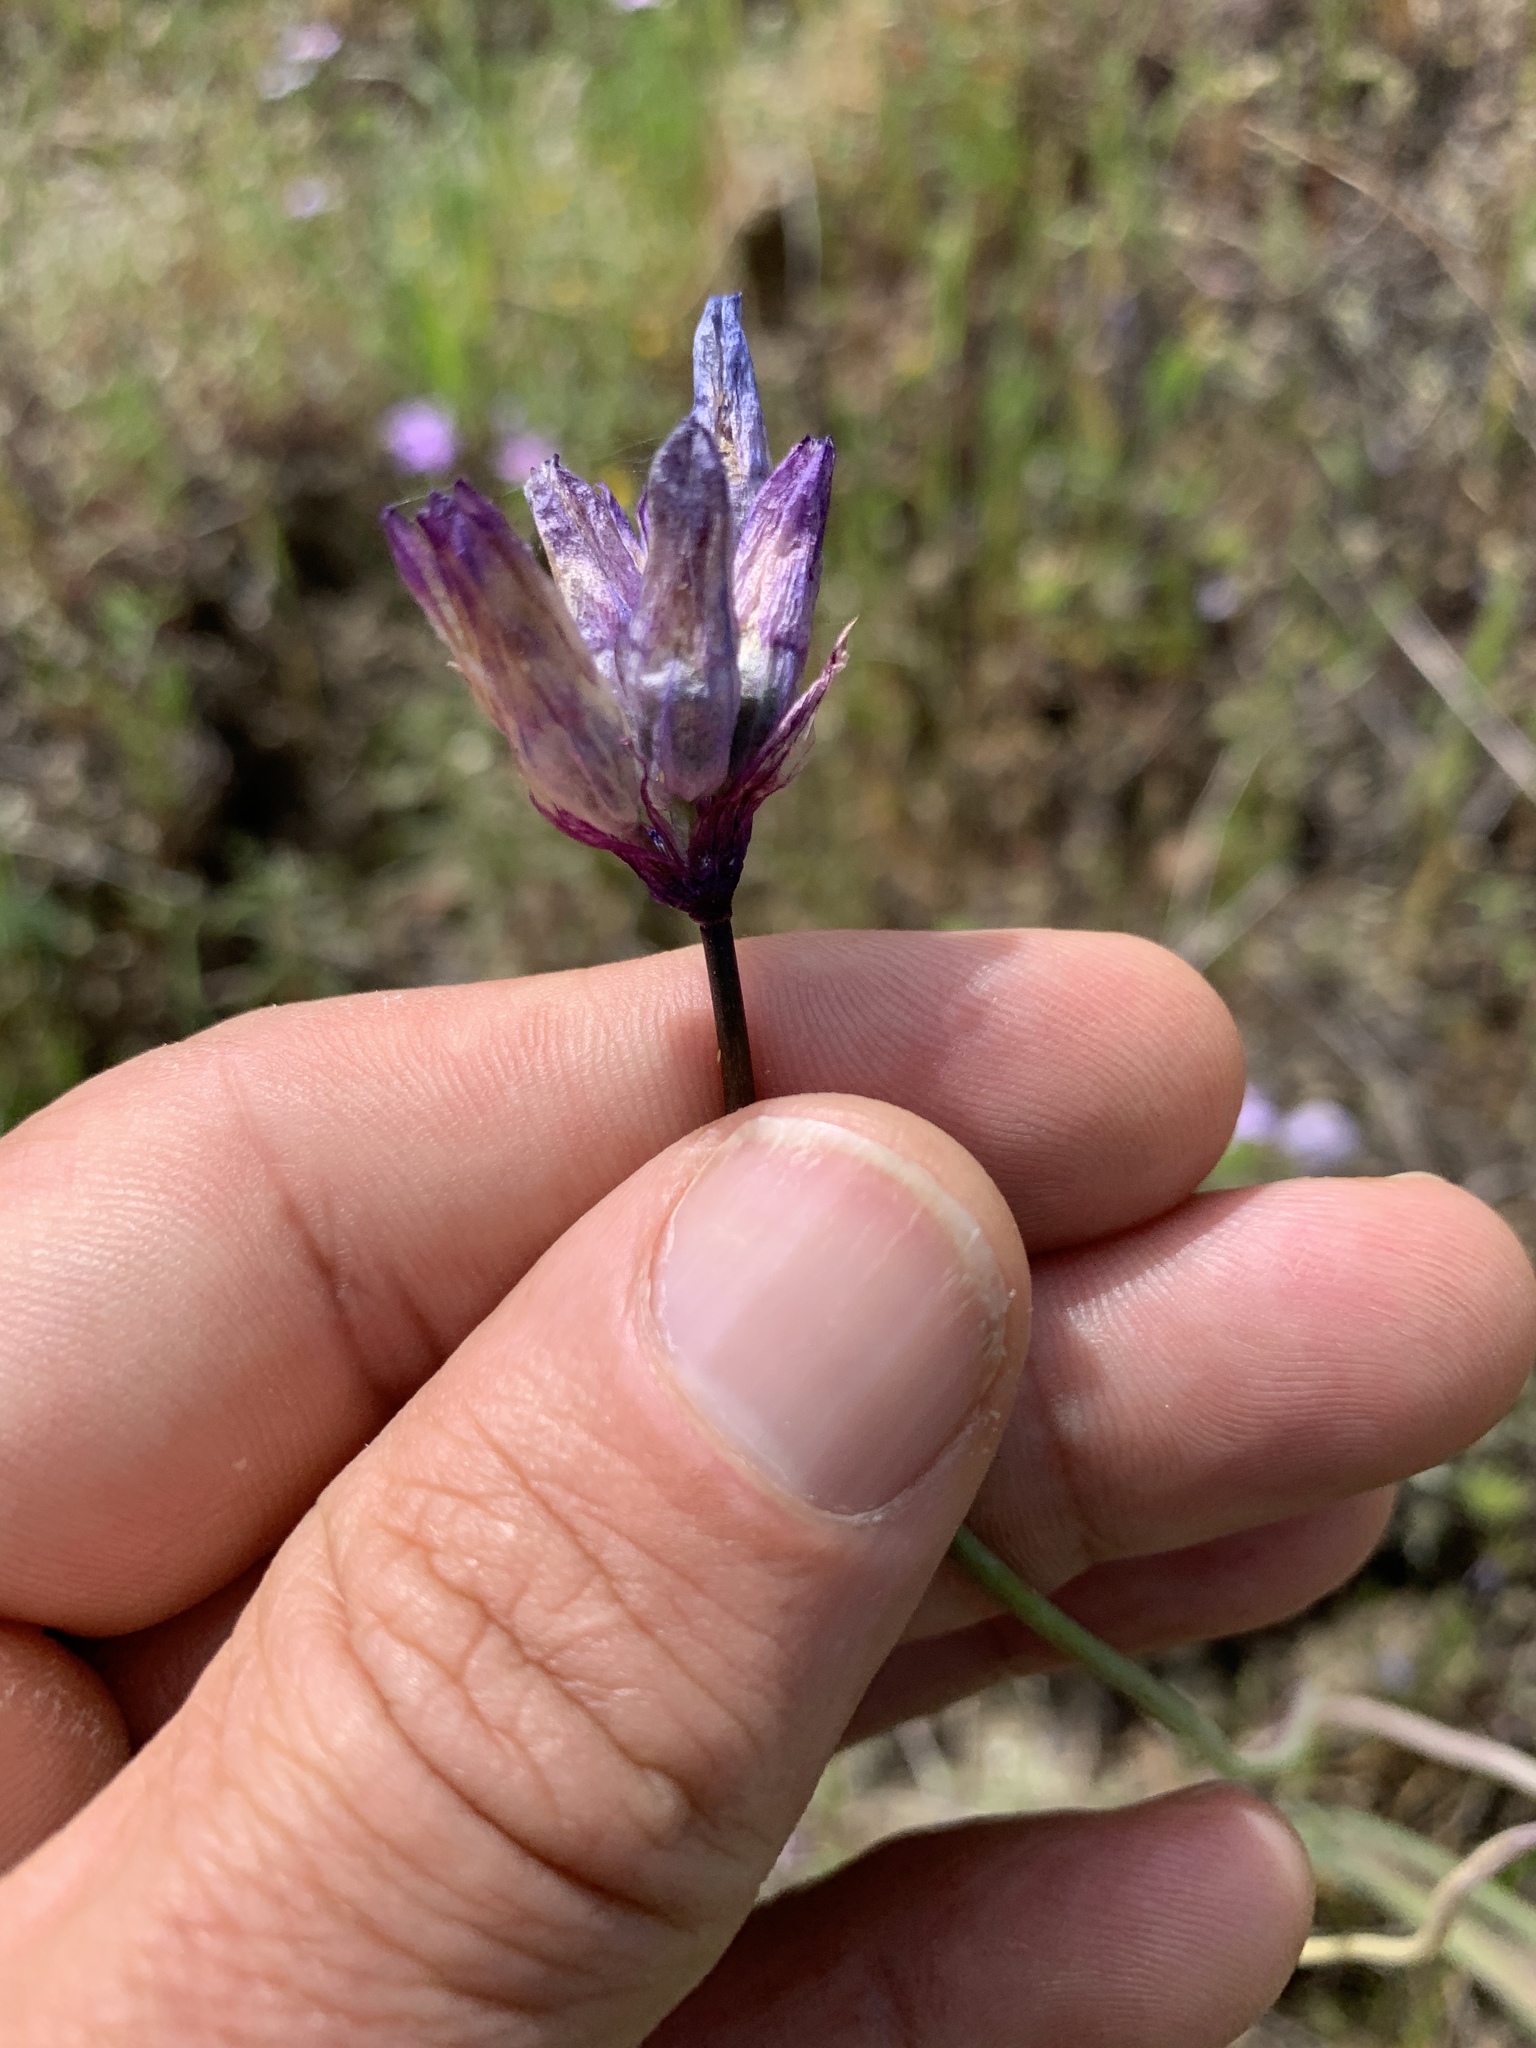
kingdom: Plantae
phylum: Tracheophyta
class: Liliopsida
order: Asparagales
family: Asparagaceae
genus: Dipterostemon
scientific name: Dipterostemon capitatus
